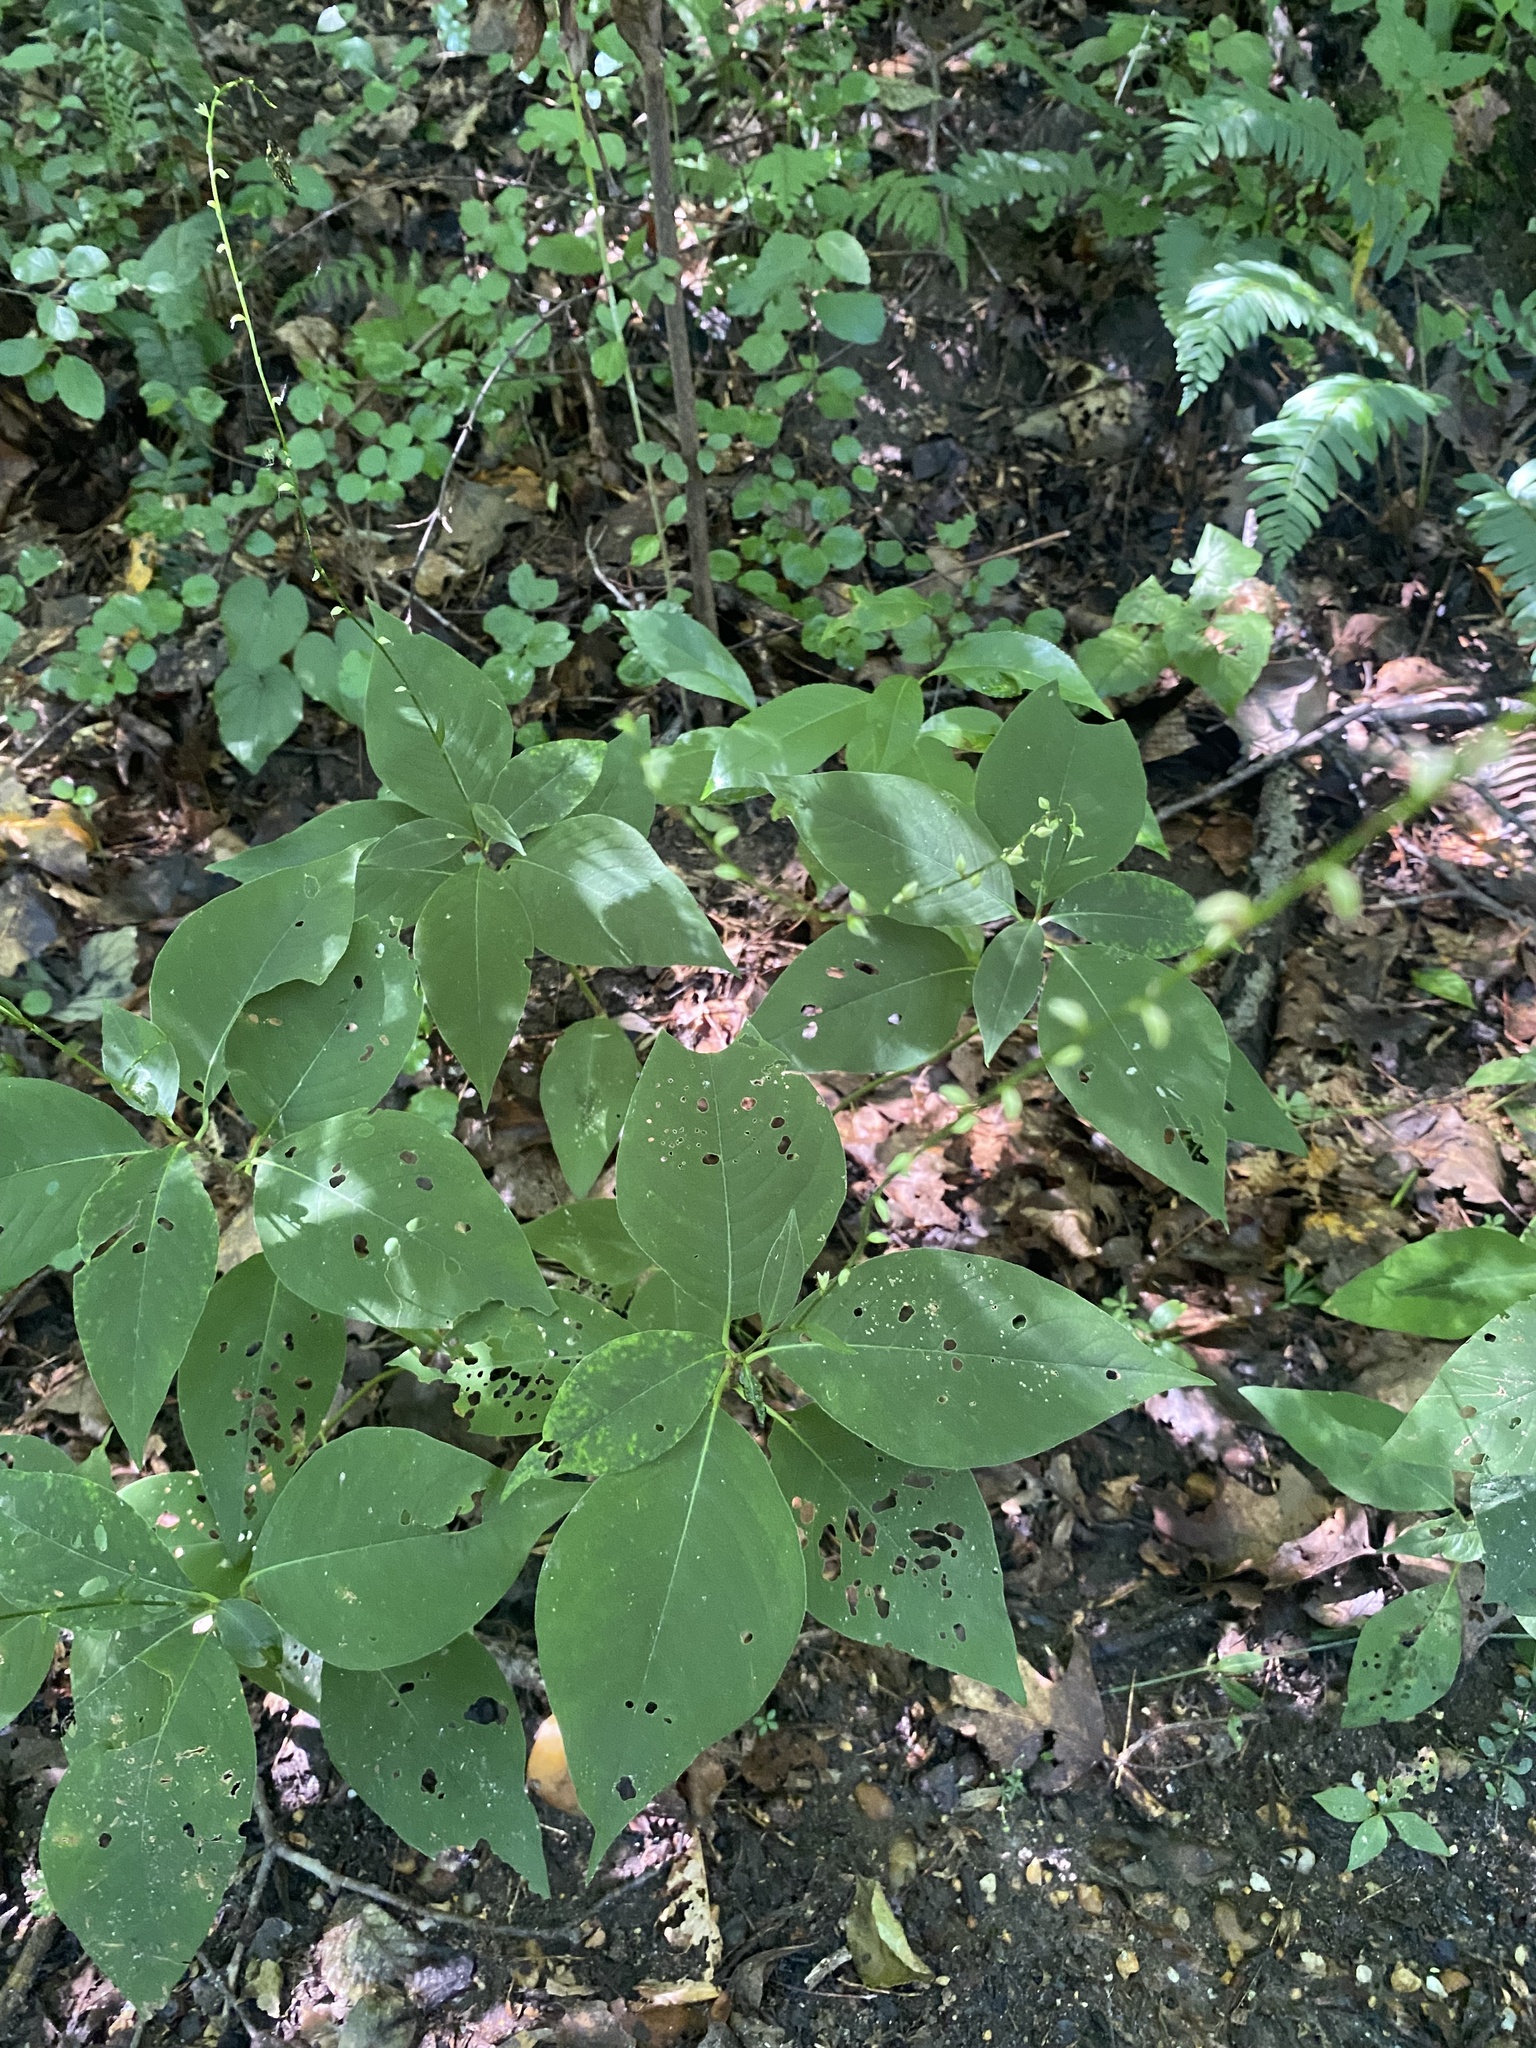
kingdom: Plantae
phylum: Tracheophyta
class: Magnoliopsida
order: Caryophyllales
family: Polygonaceae
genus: Persicaria
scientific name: Persicaria virginiana
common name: Jumpseed
